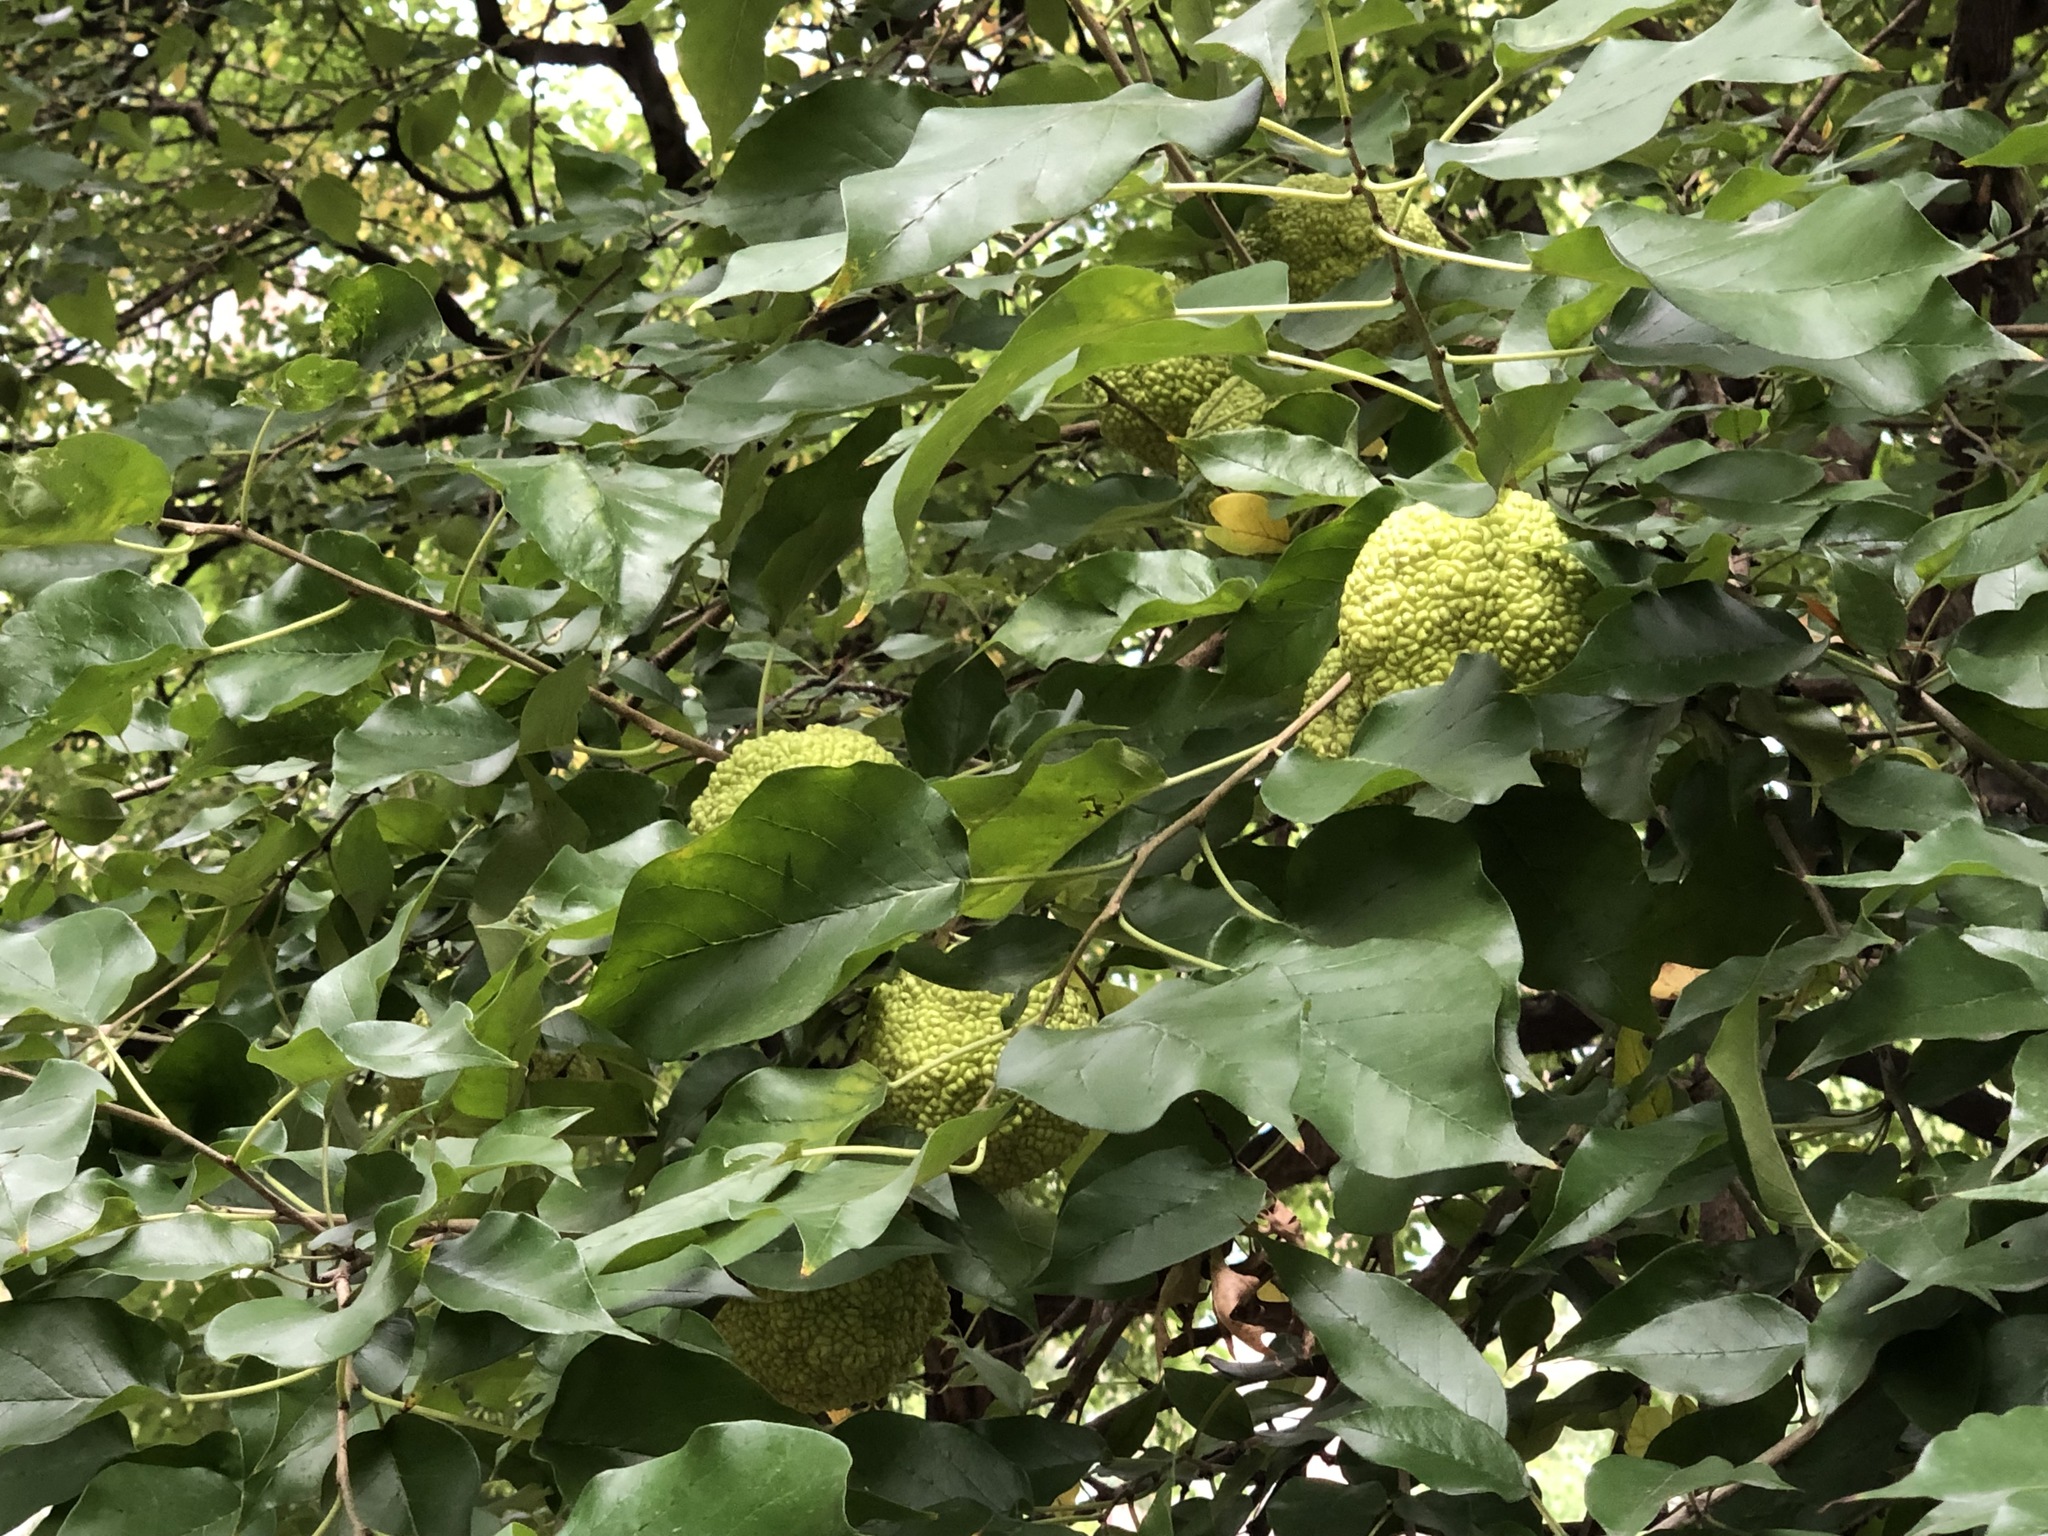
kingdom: Plantae
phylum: Tracheophyta
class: Magnoliopsida
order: Rosales
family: Moraceae
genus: Maclura
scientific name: Maclura pomifera
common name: Osage-orange
